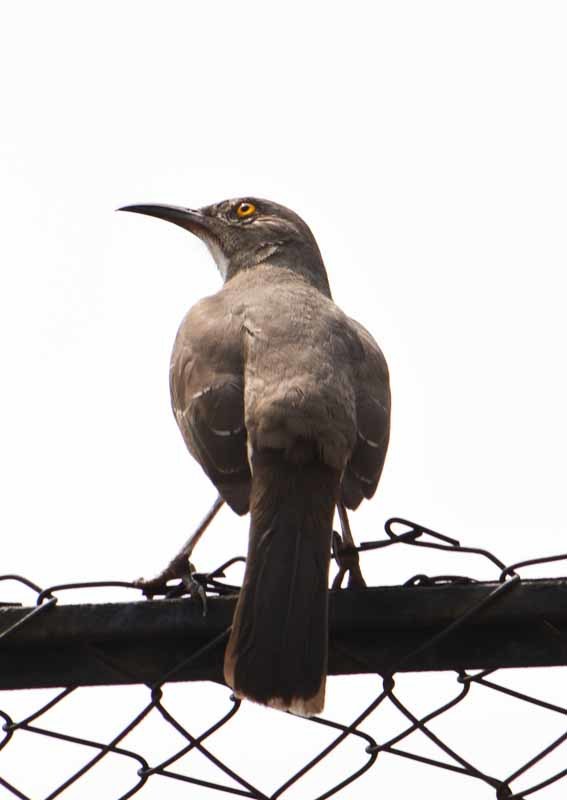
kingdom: Animalia
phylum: Chordata
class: Aves
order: Passeriformes
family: Mimidae
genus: Toxostoma
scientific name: Toxostoma curvirostre
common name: Curve-billed thrasher
